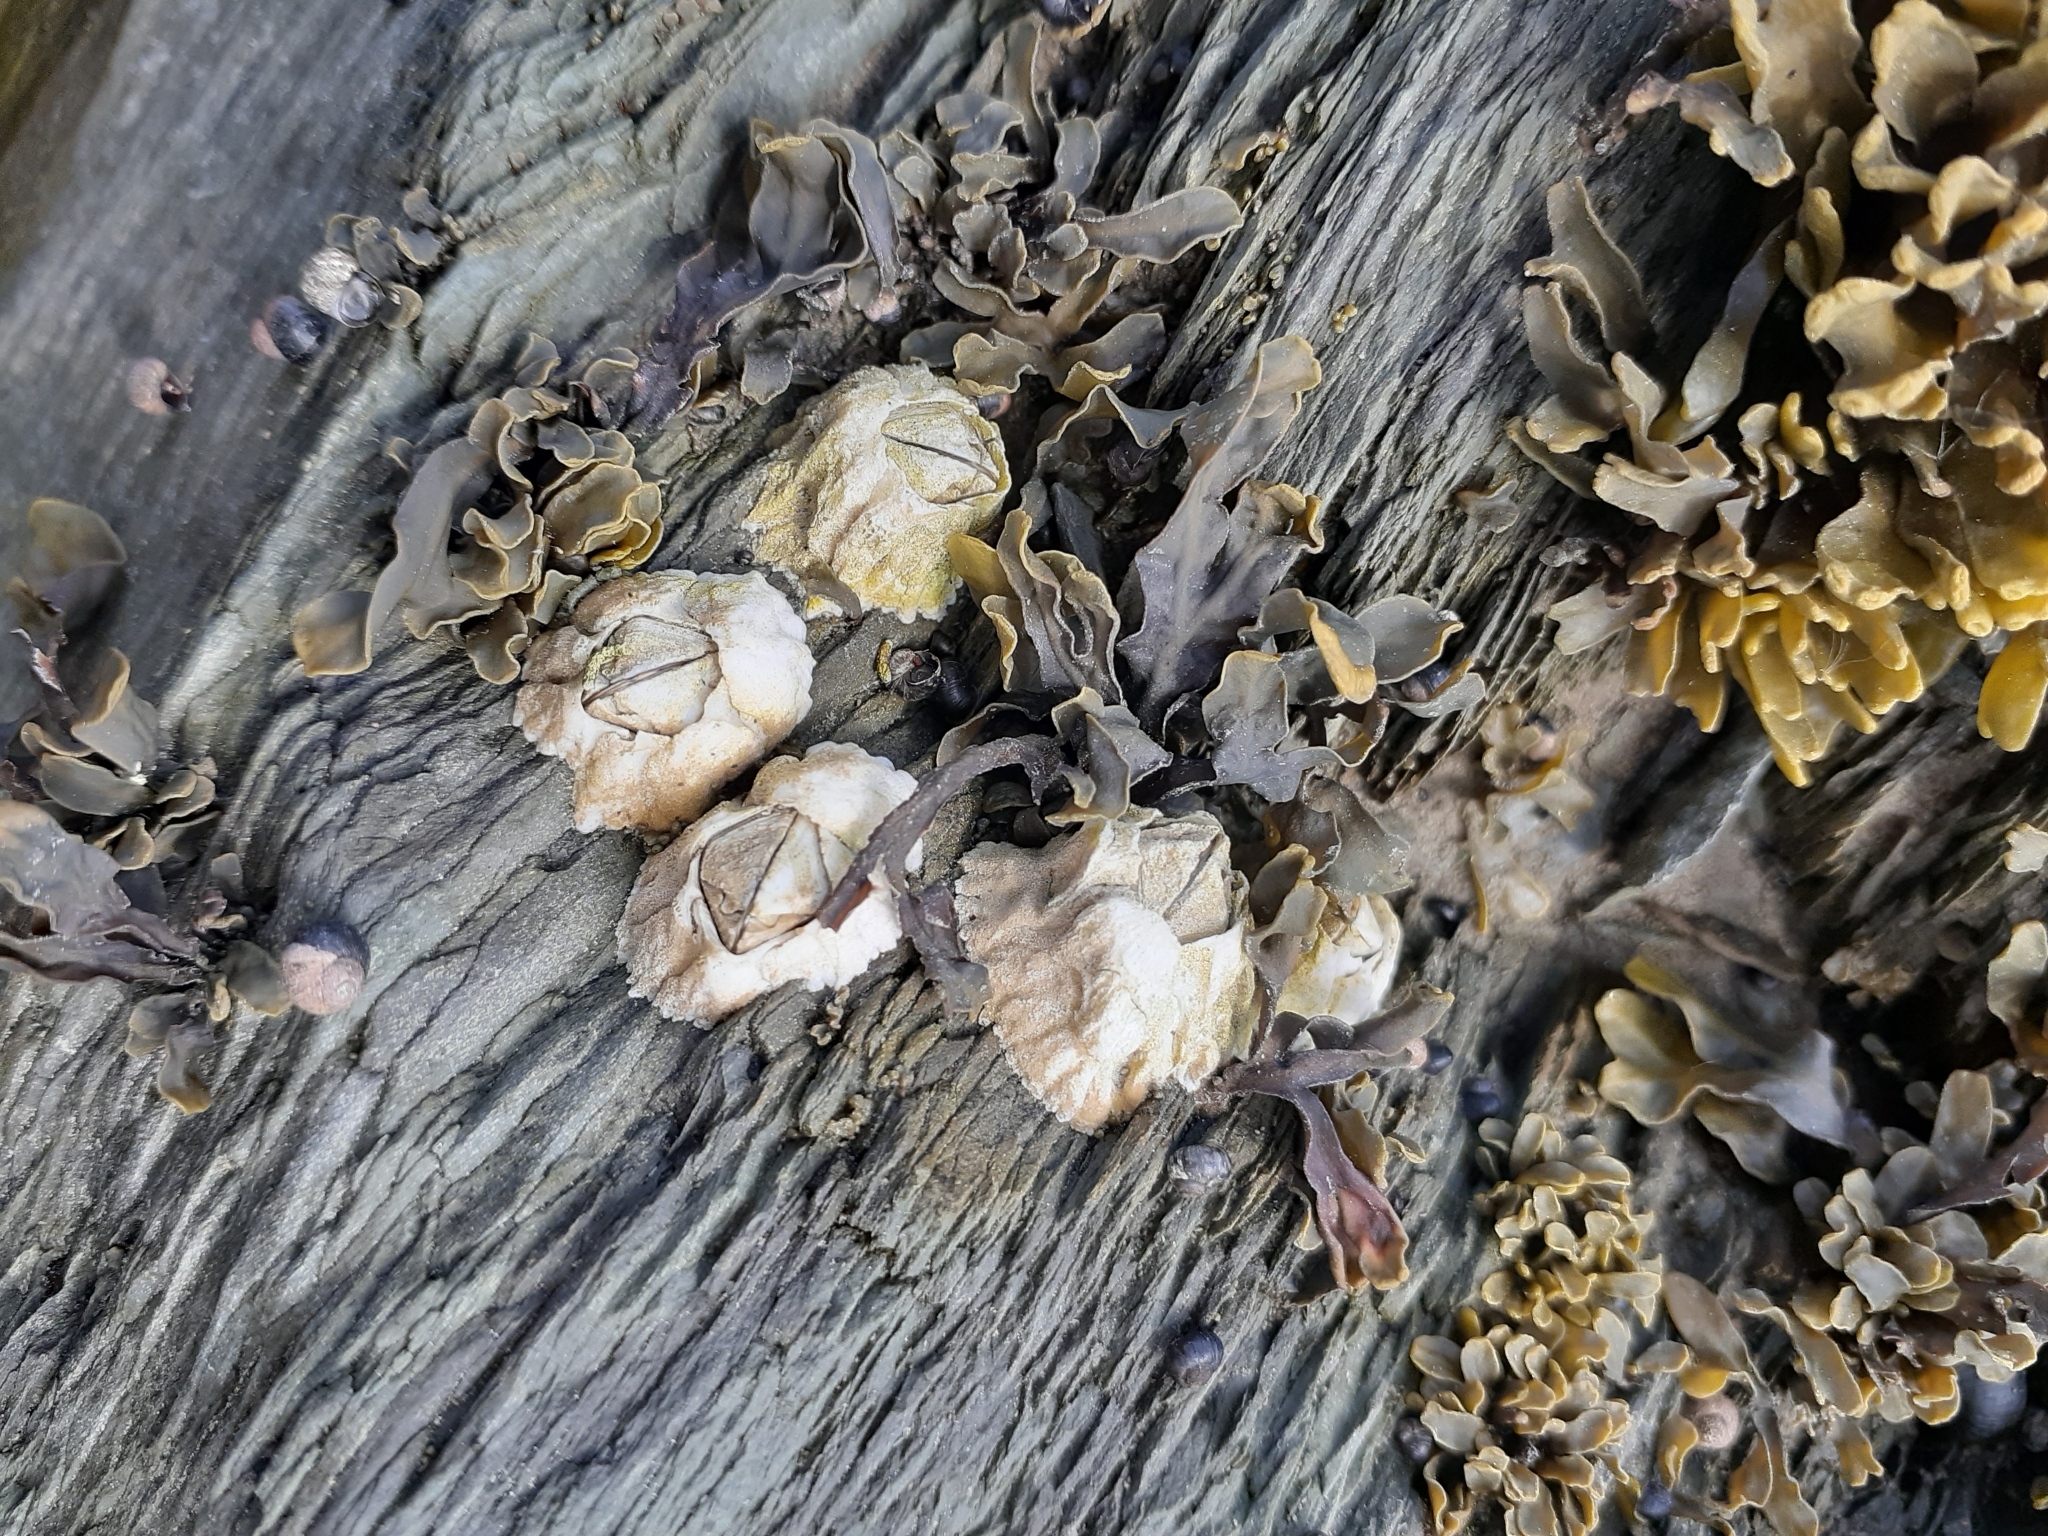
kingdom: Animalia
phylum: Arthropoda
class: Maxillopoda
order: Sessilia
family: Archaeobalanidae
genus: Semibalanus
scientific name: Semibalanus balanoides
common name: Acorn barnacle
